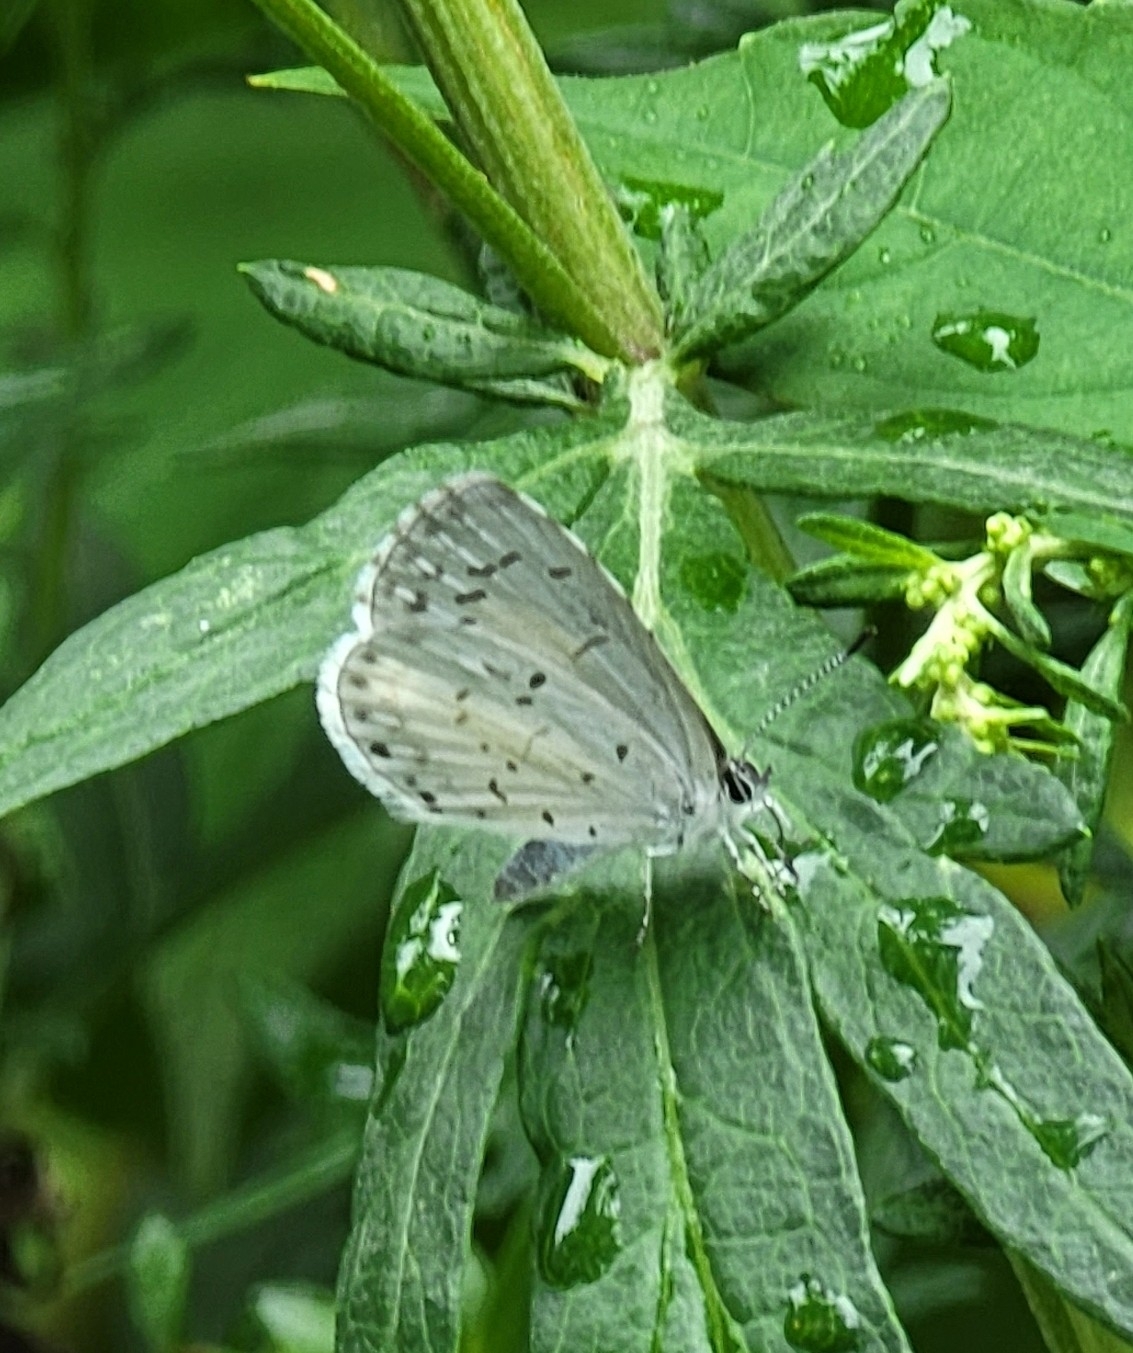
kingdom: Animalia
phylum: Arthropoda
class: Insecta
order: Lepidoptera
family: Lycaenidae
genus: Cyaniris
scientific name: Cyaniris neglecta
